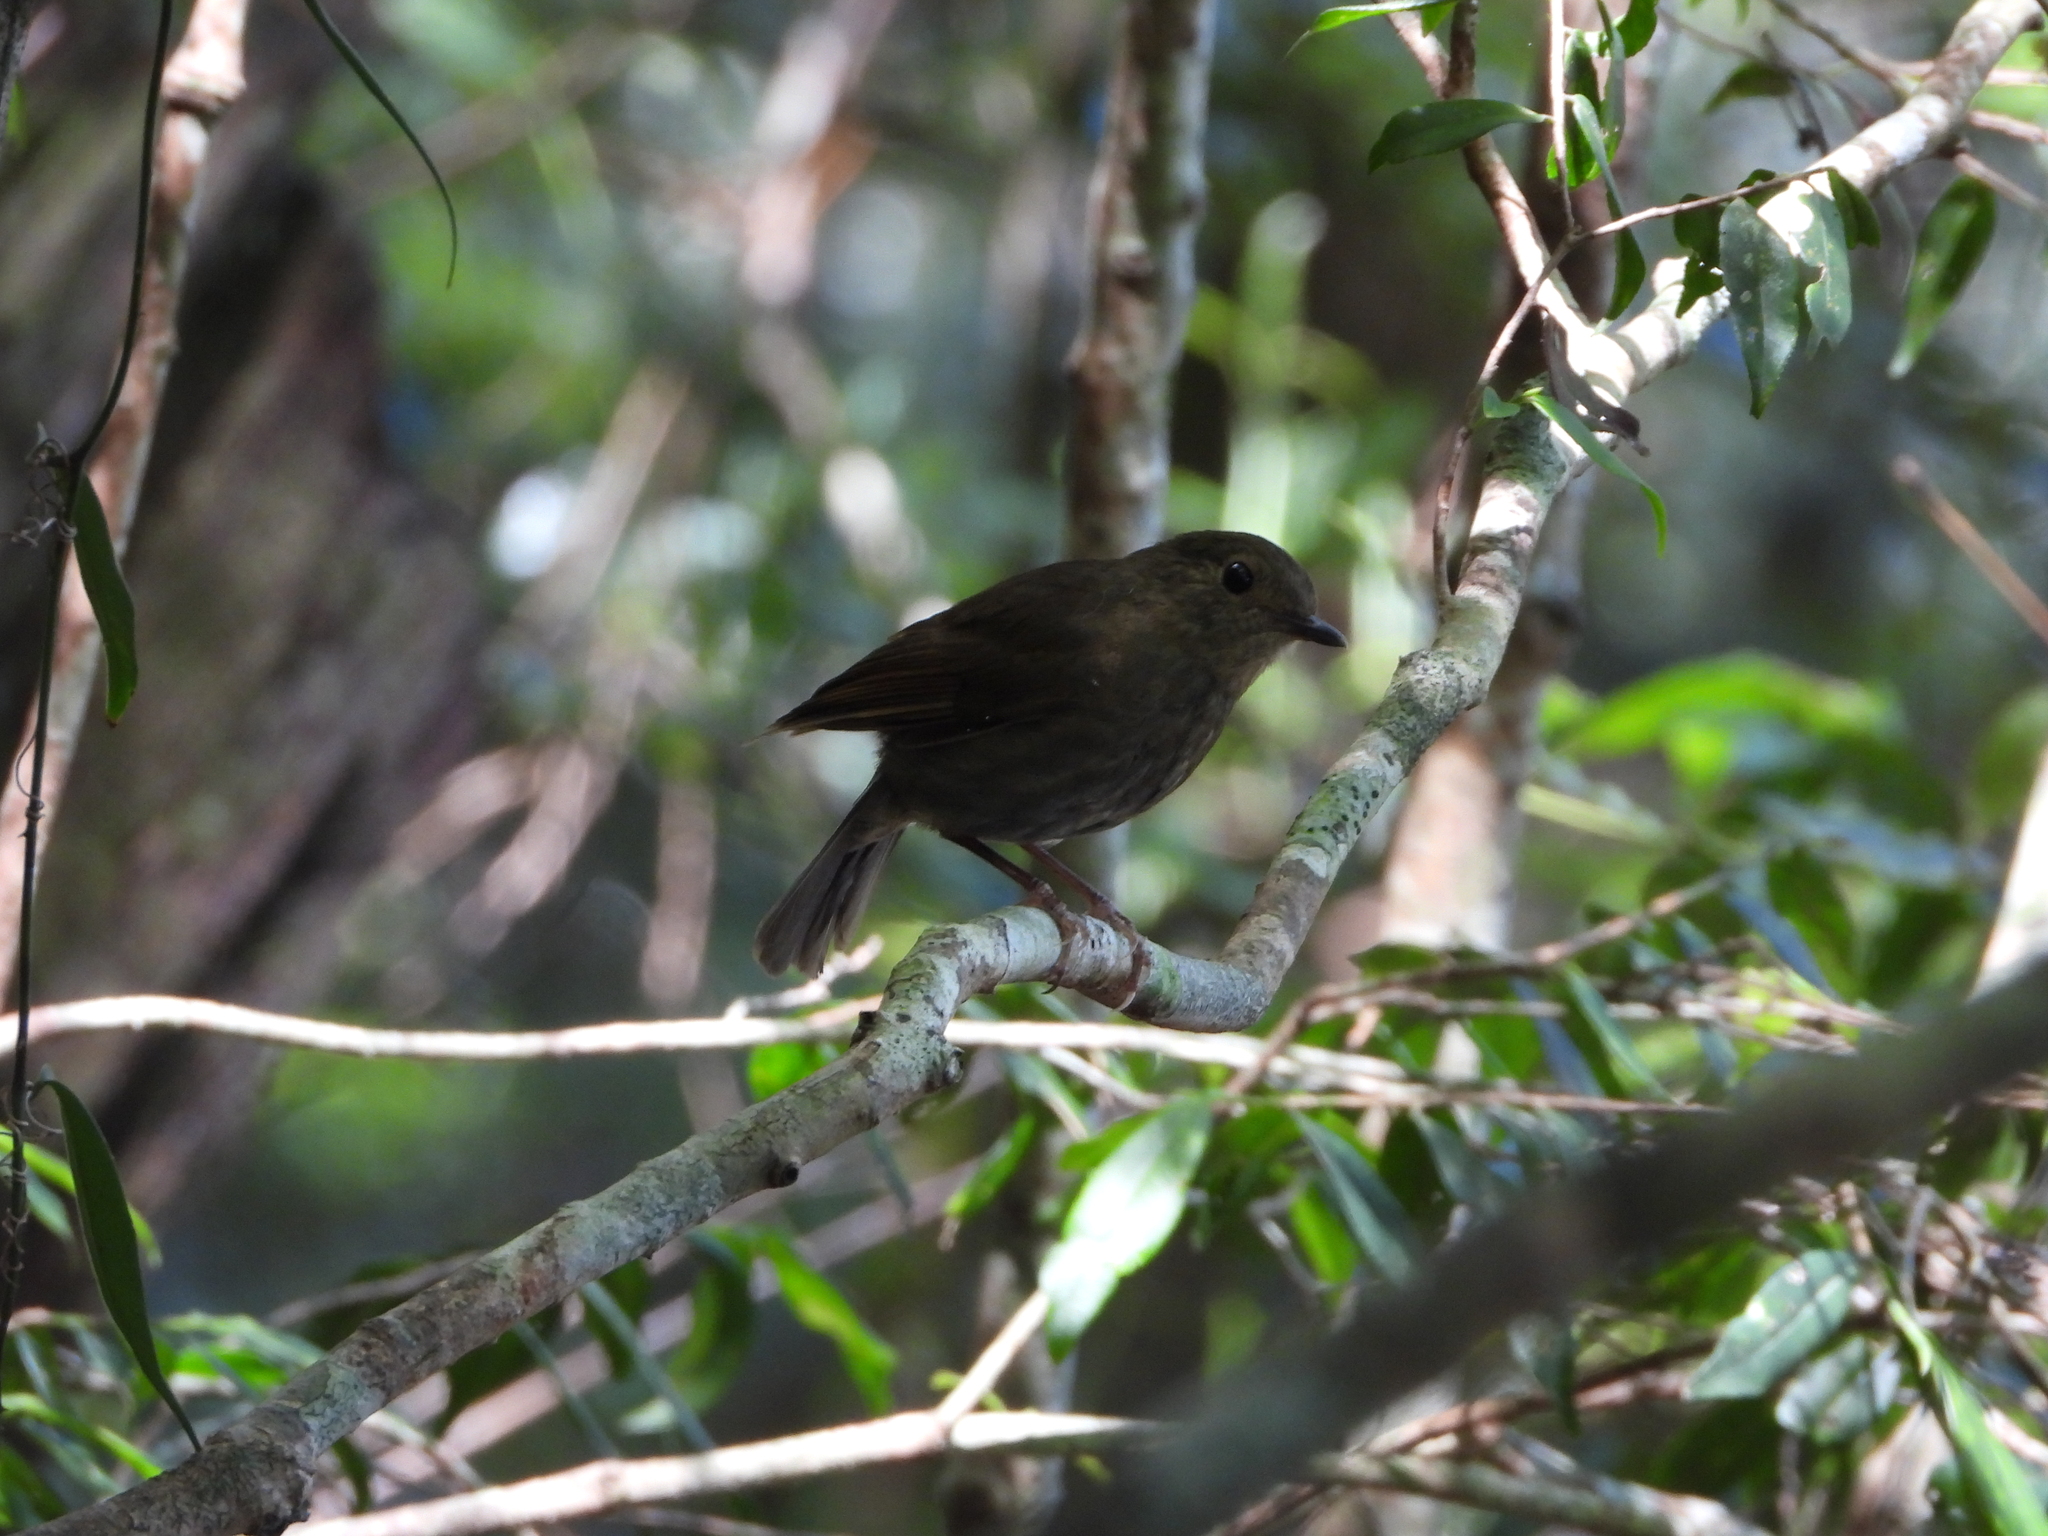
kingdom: Animalia
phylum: Chordata
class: Aves
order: Passeriformes
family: Muscicapidae
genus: Myiomela
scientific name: Myiomela leucura
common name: White-tailed robin
